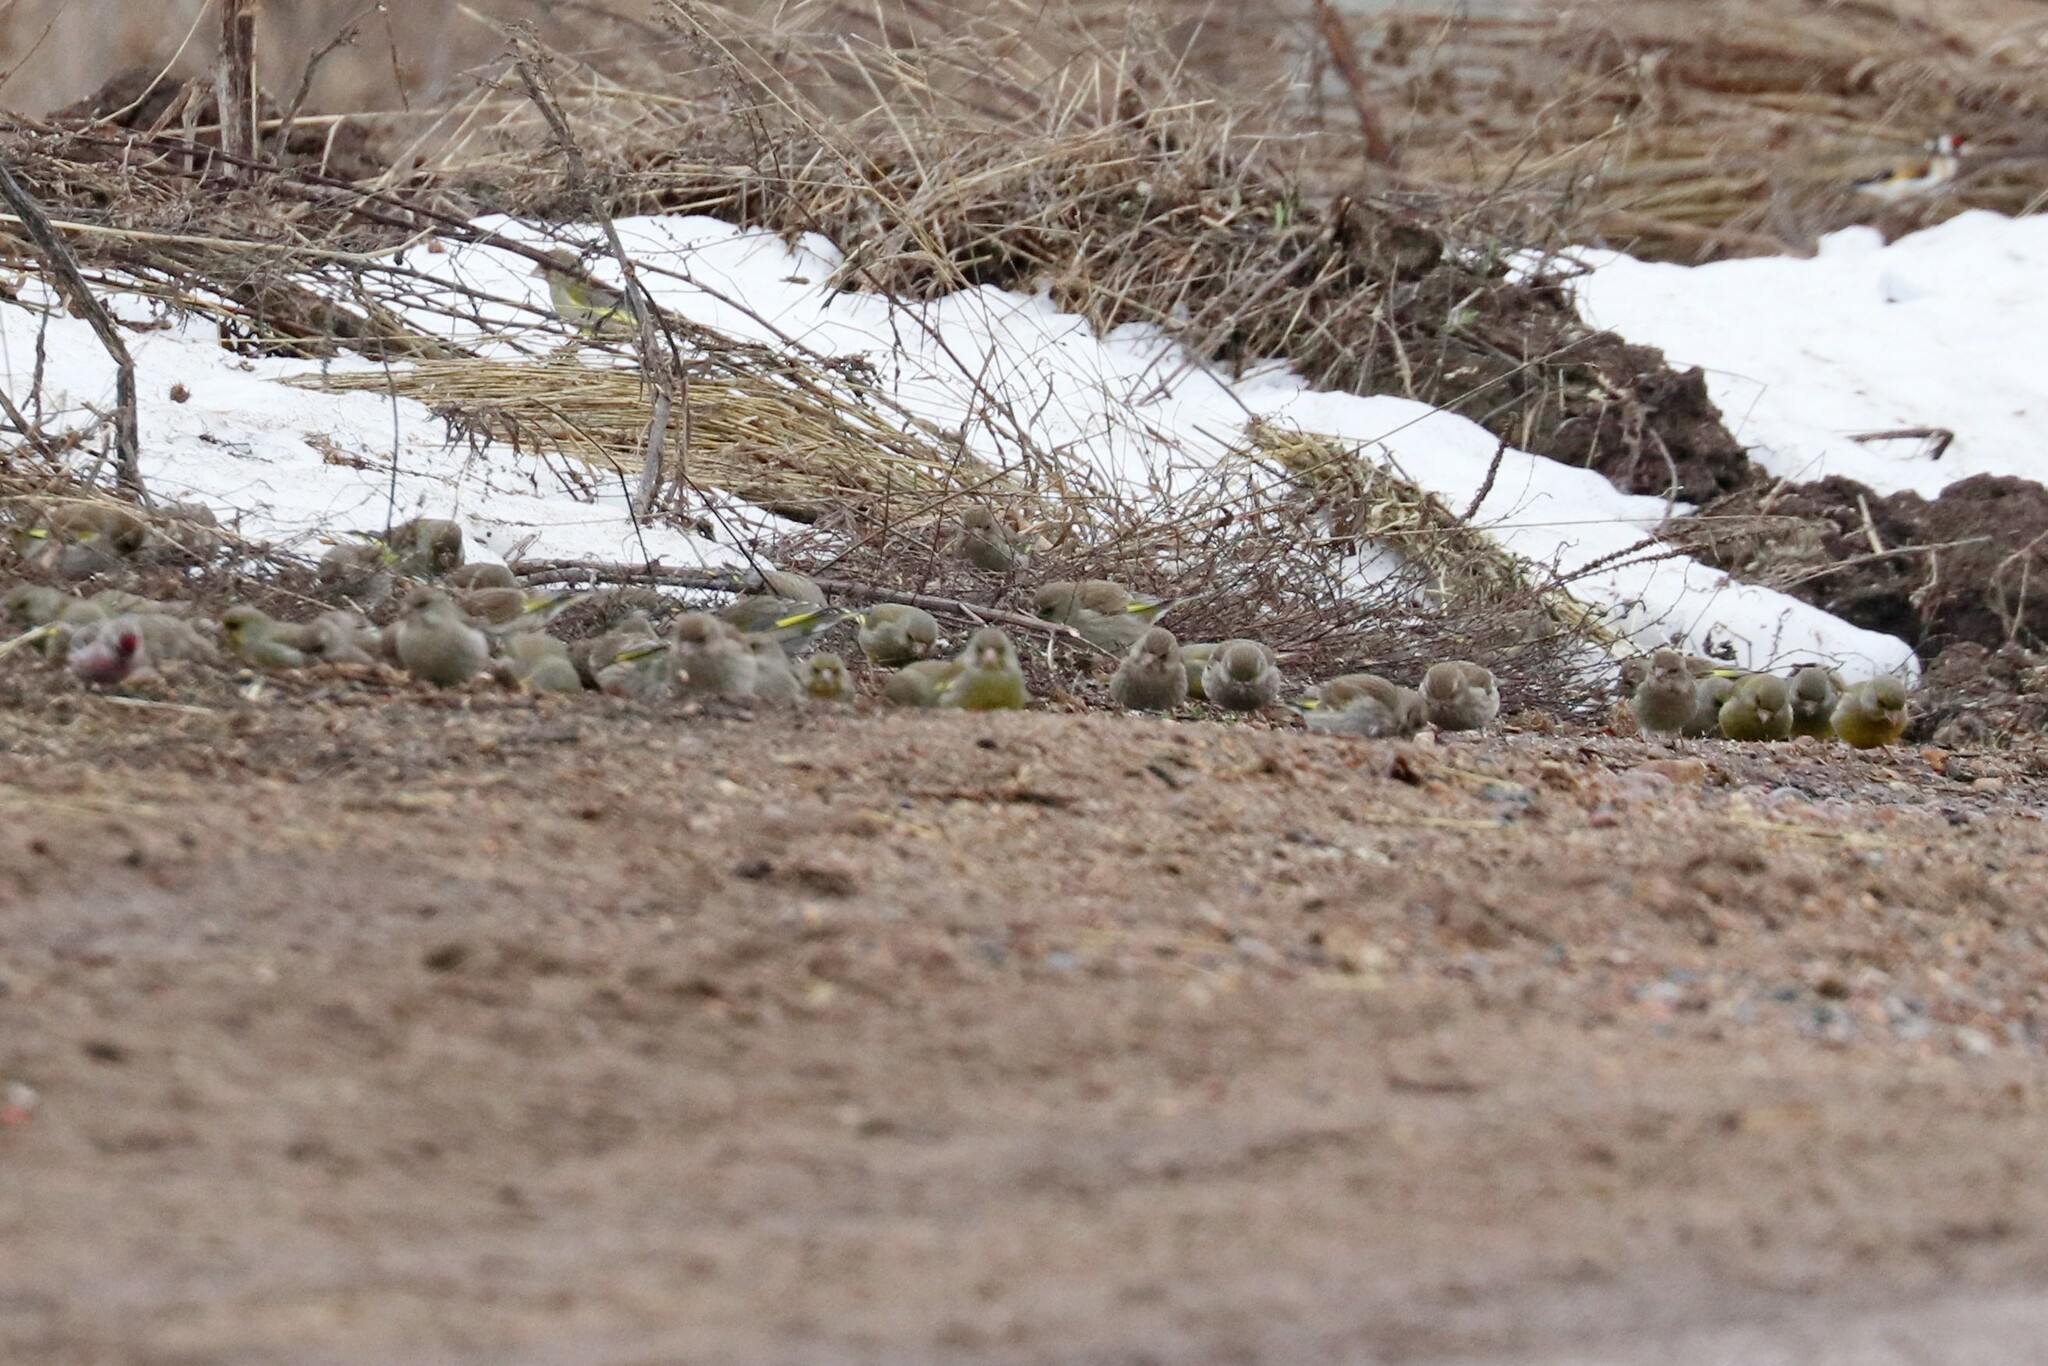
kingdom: Plantae
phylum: Tracheophyta
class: Liliopsida
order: Poales
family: Poaceae
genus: Chloris
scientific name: Chloris chloris
